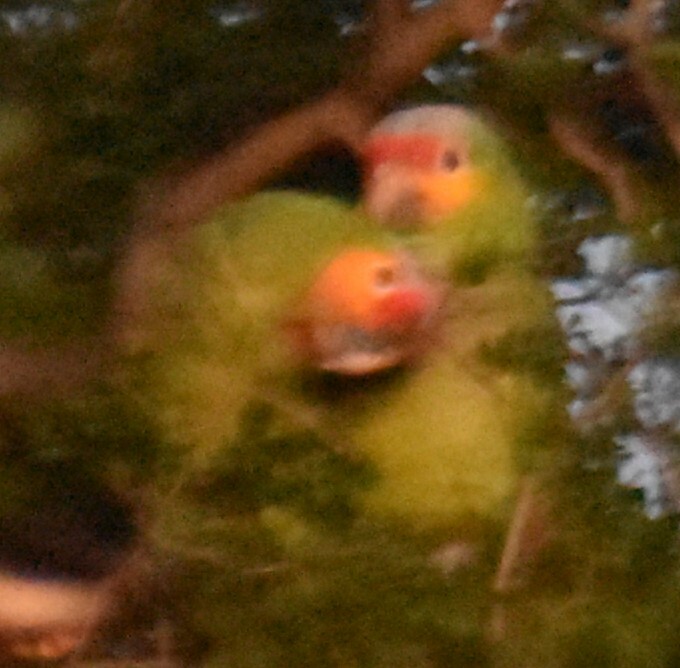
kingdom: Animalia
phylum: Chordata
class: Aves
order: Psittaciformes
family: Psittacidae
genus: Amazona
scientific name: Amazona autumnalis
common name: Red-lored amazon
